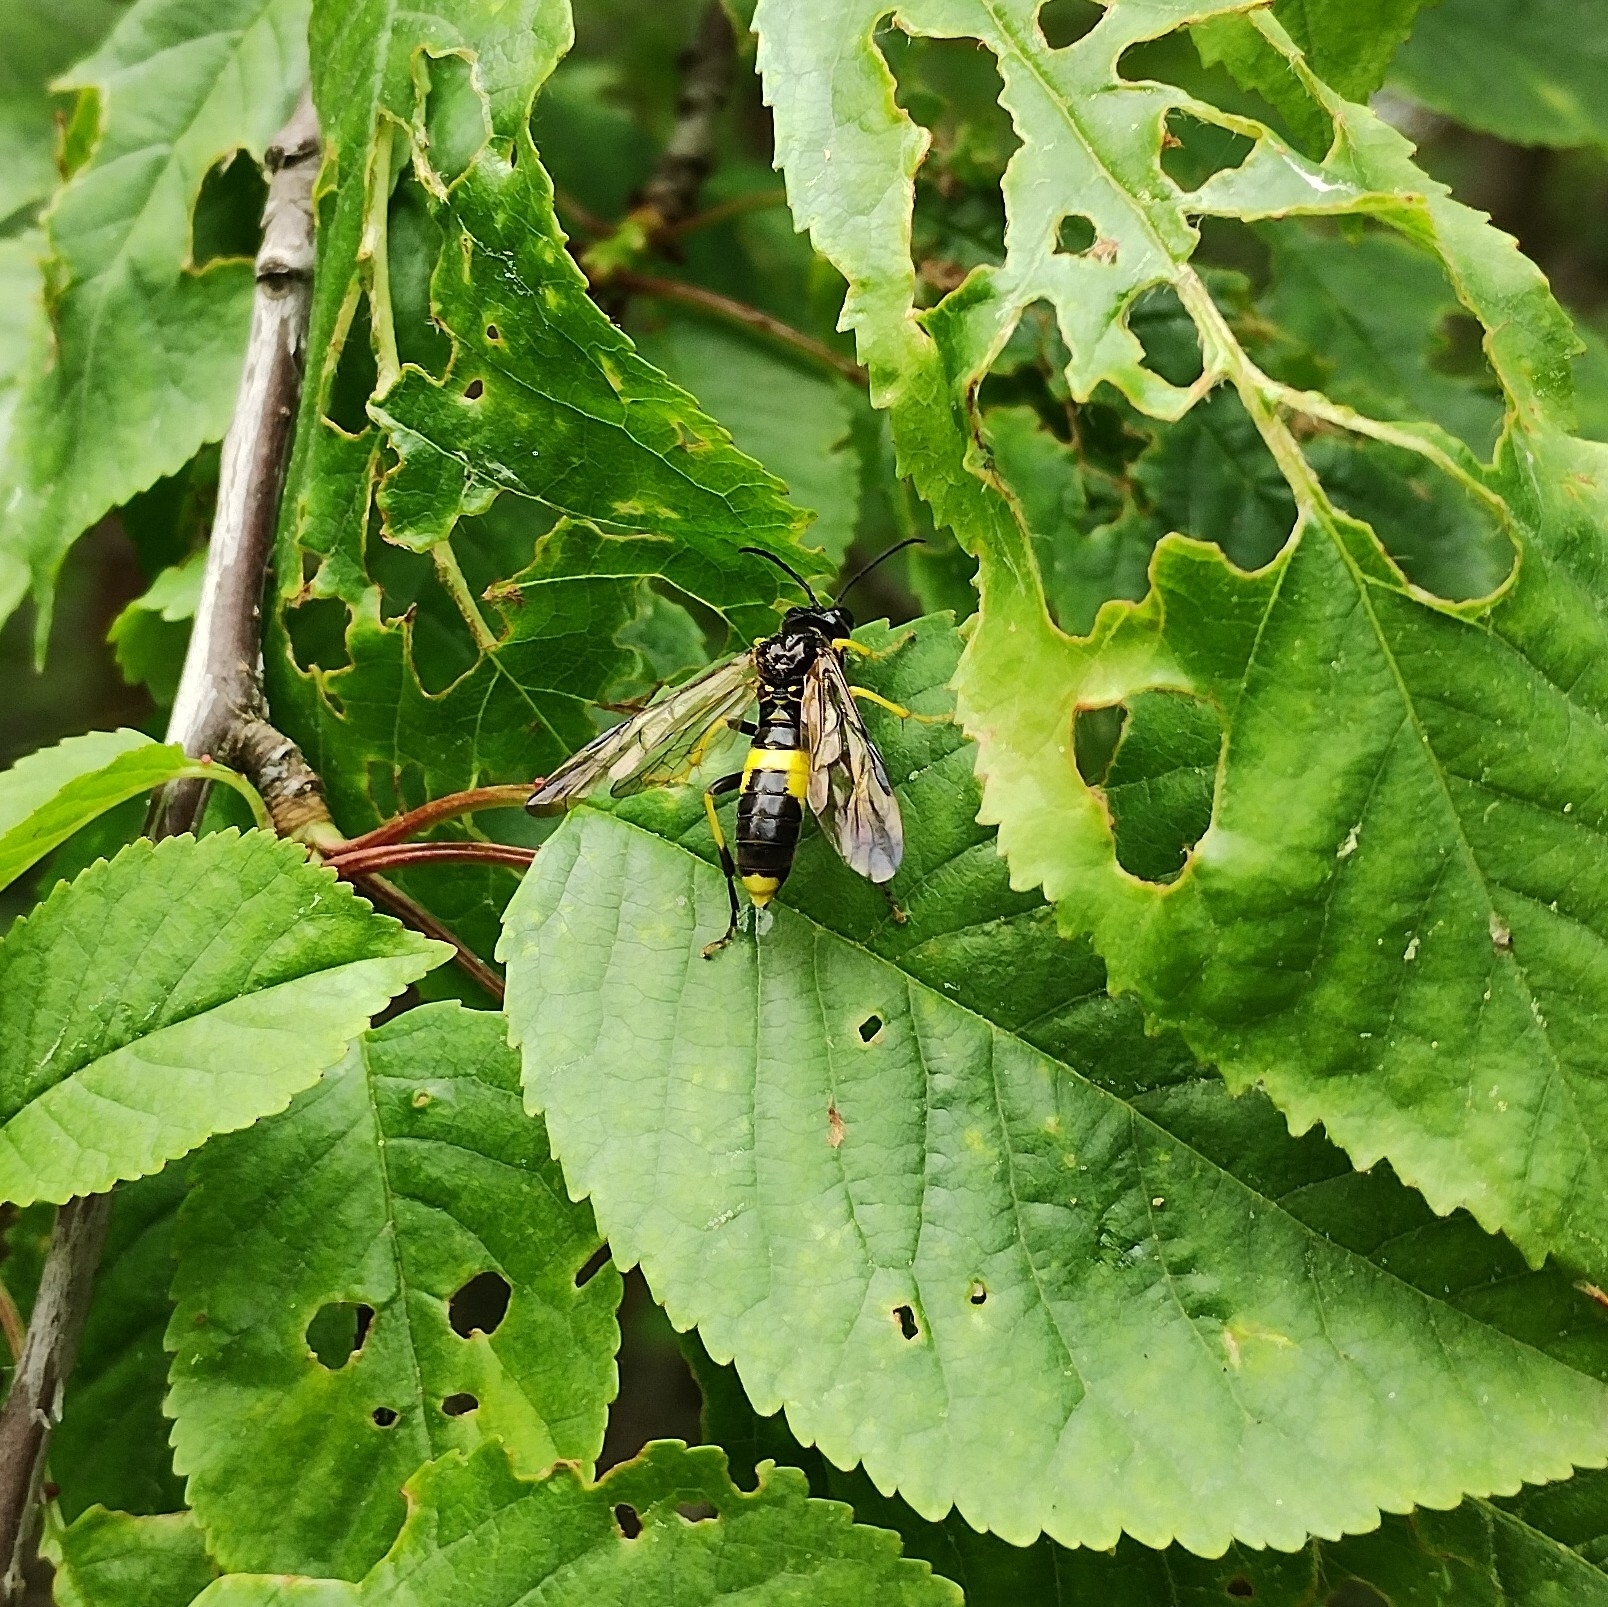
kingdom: Animalia
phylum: Arthropoda
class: Insecta
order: Hymenoptera
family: Tenthredinidae
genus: Tenthredo
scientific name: Tenthredo temula
